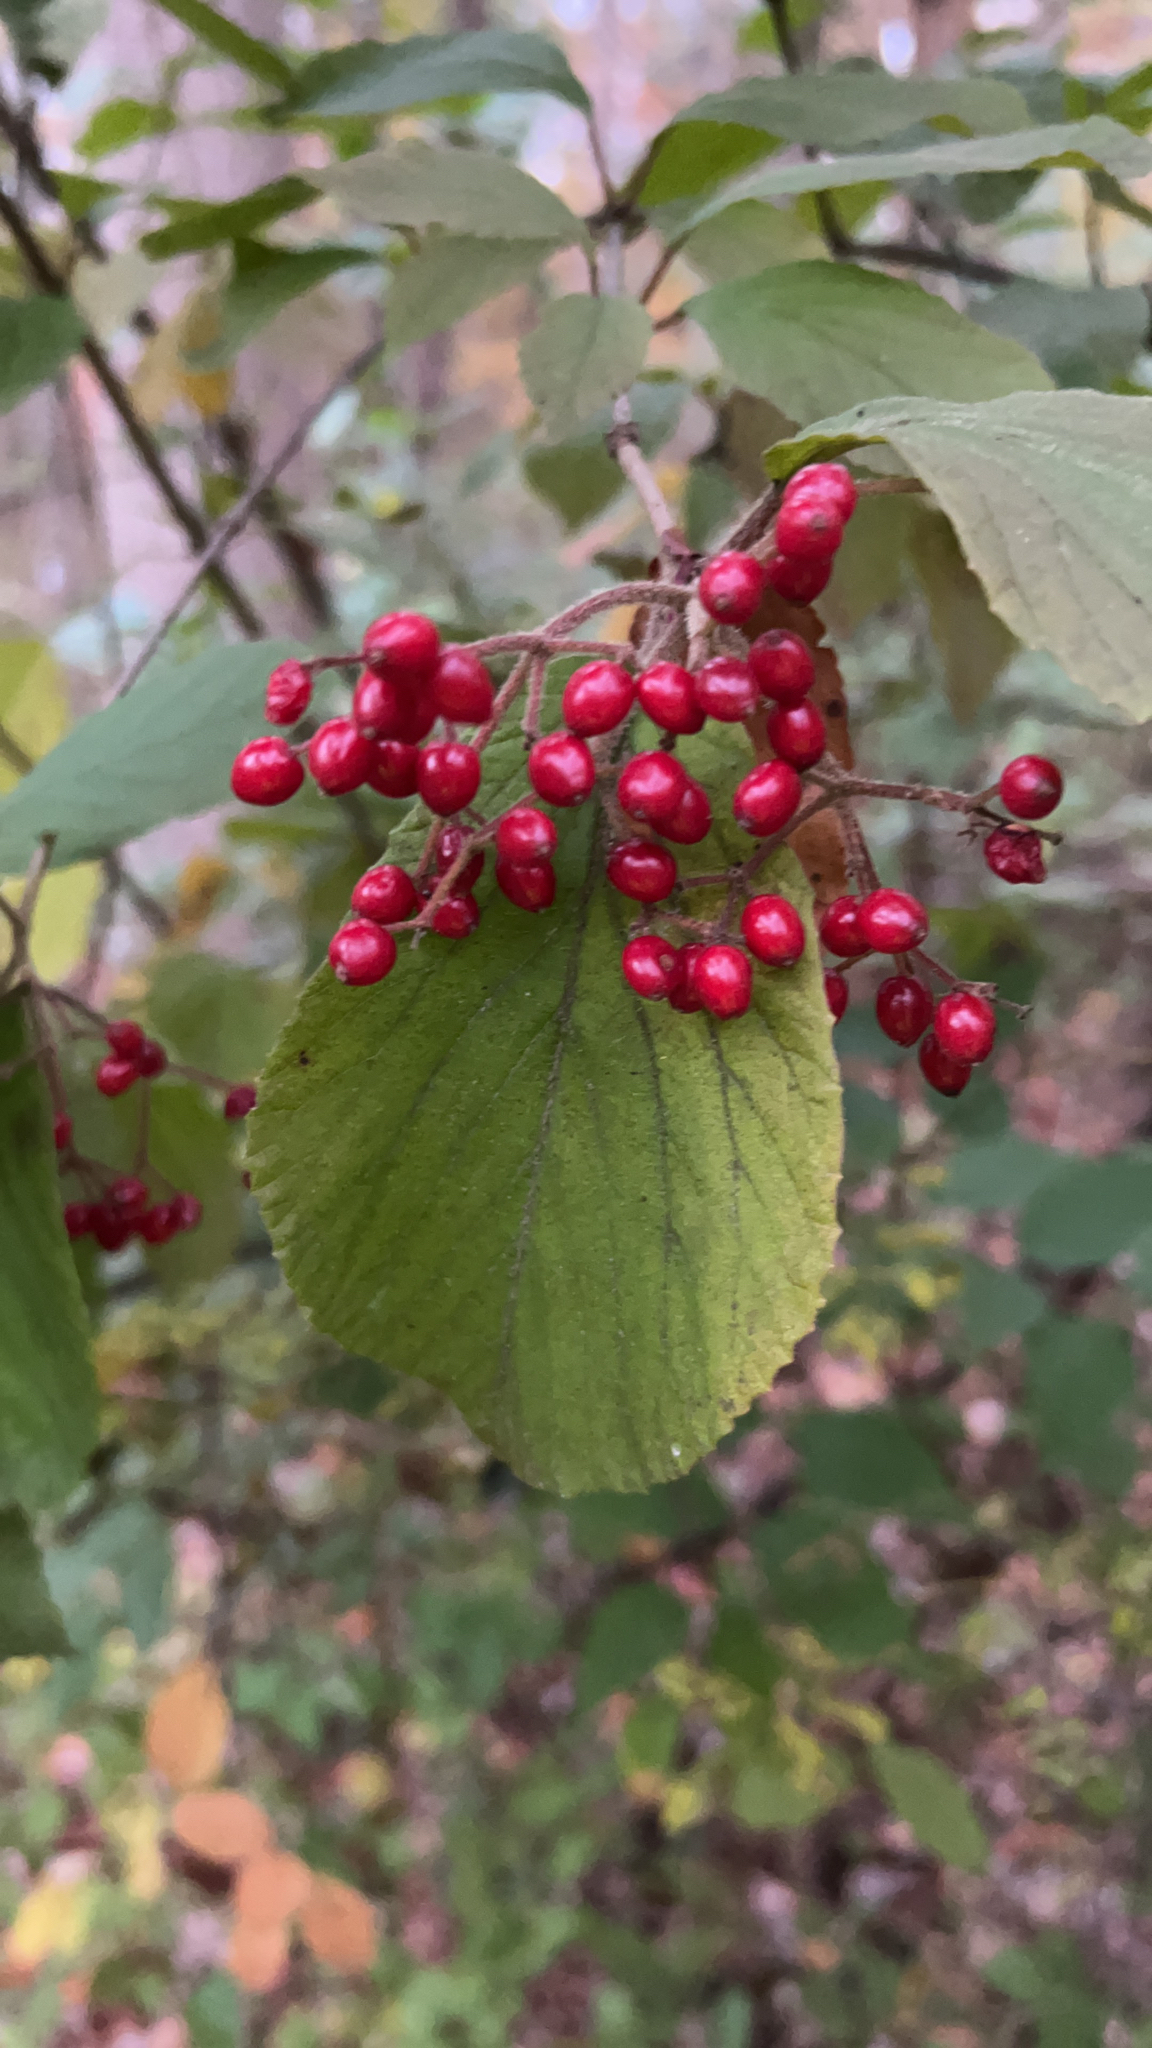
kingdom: Plantae
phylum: Tracheophyta
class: Magnoliopsida
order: Dipsacales
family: Viburnaceae
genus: Viburnum
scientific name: Viburnum dilatatum
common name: Linden arrowwood
